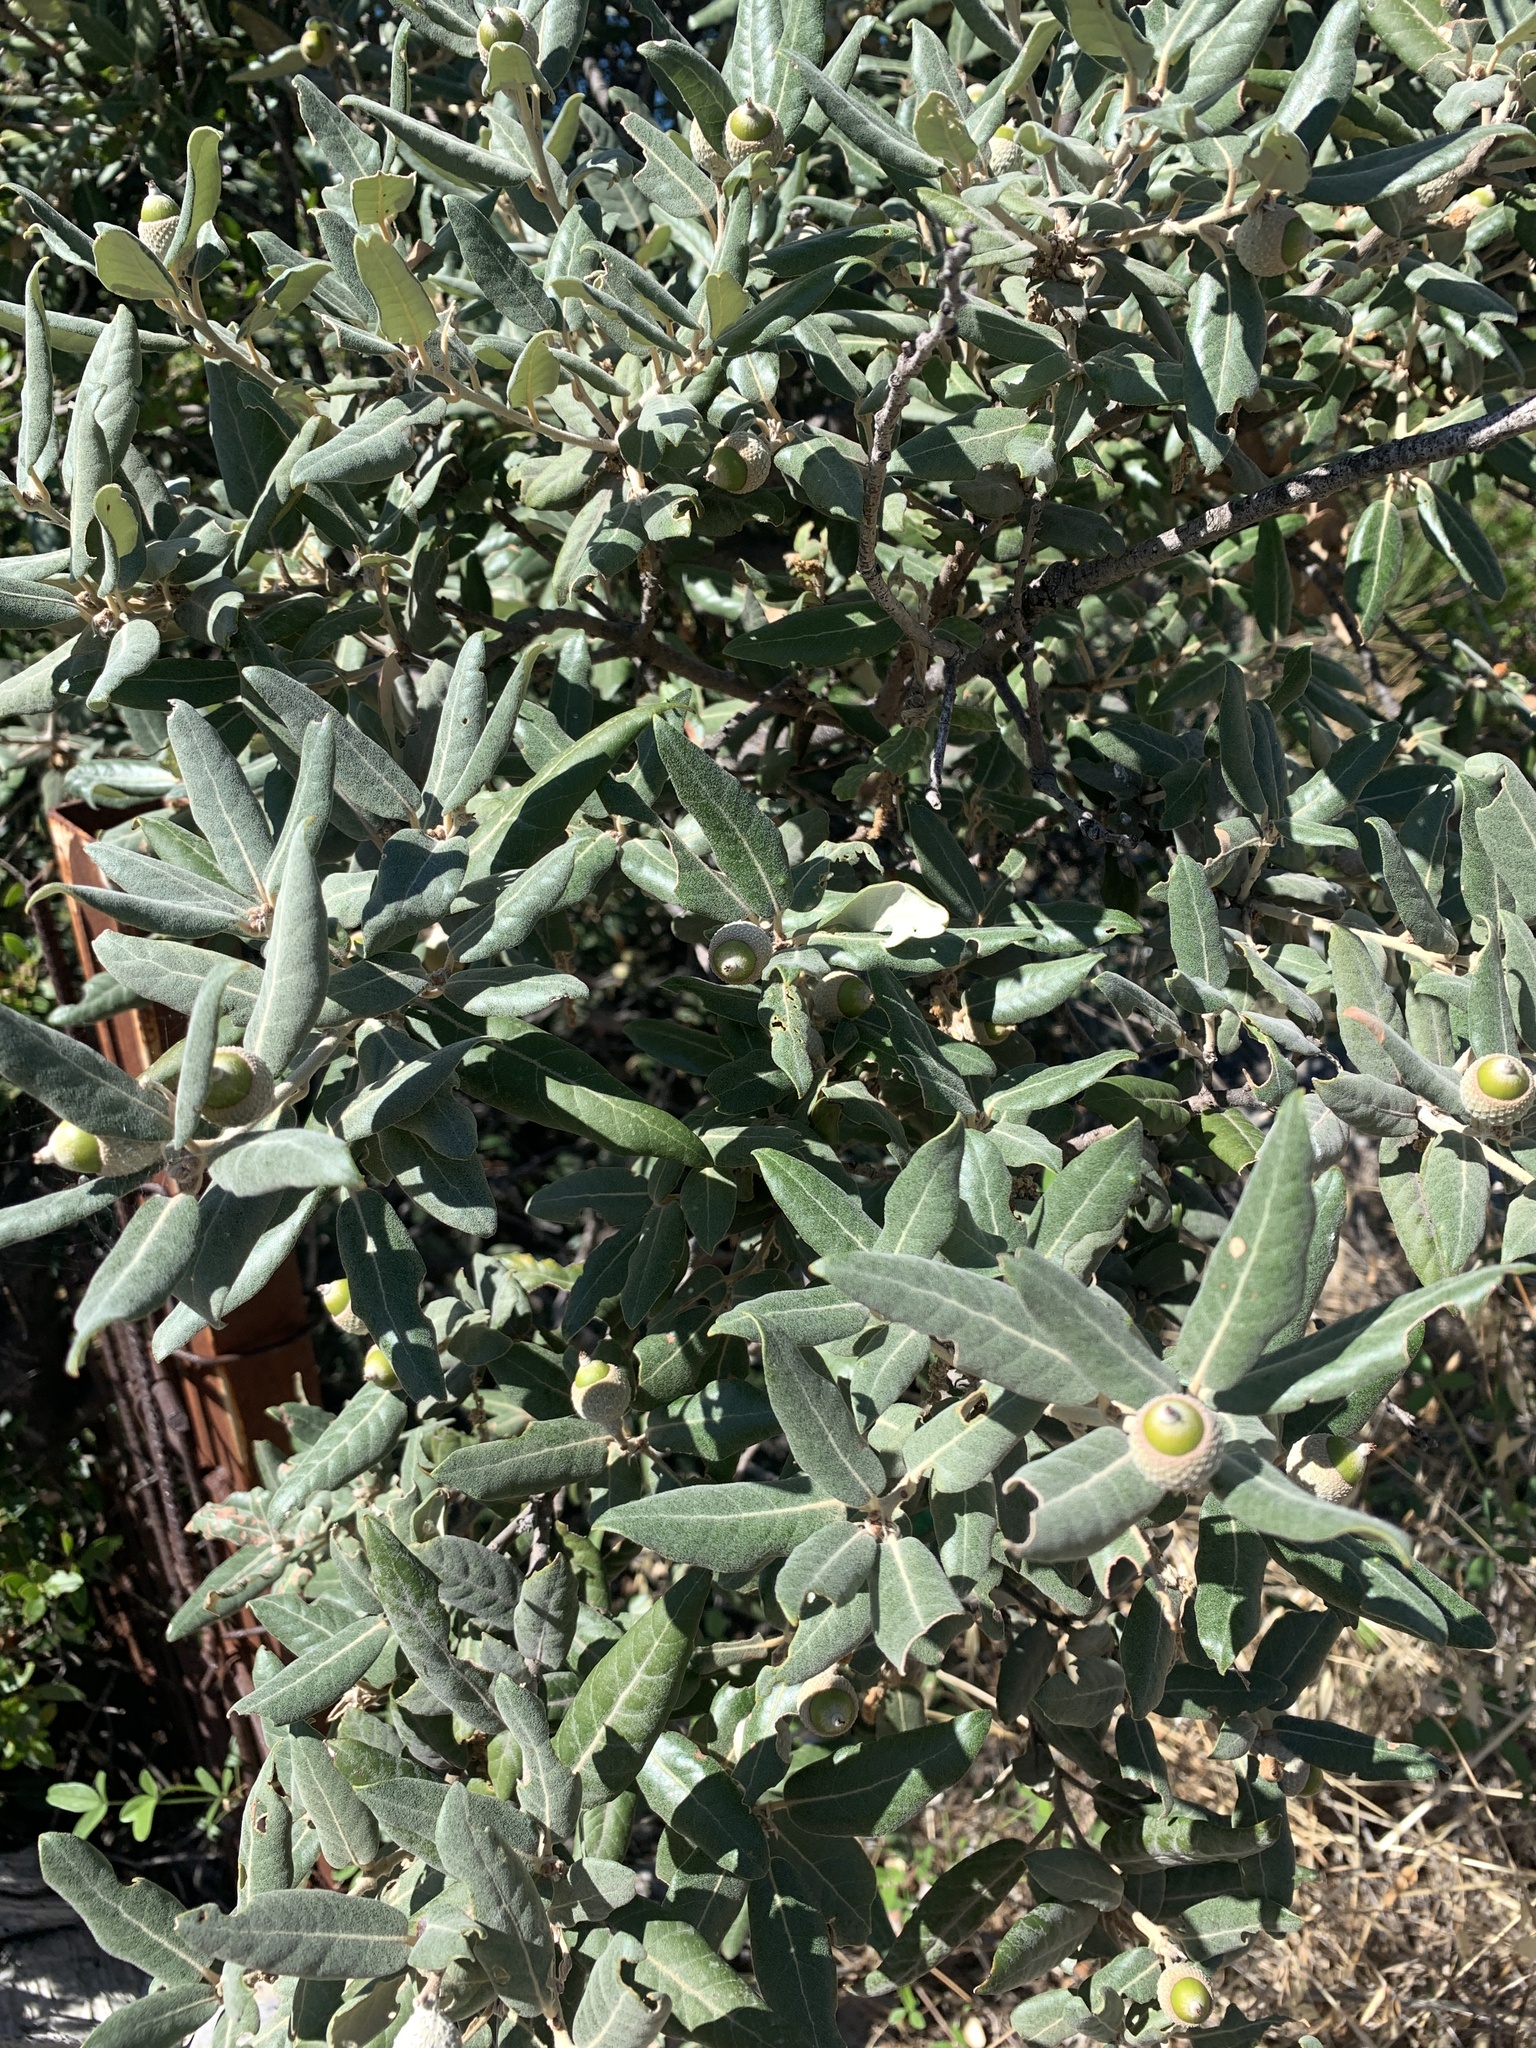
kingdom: Plantae
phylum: Tracheophyta
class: Magnoliopsida
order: Fagales
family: Fagaceae
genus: Quercus
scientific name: Quercus ilex
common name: Evergreen oak
